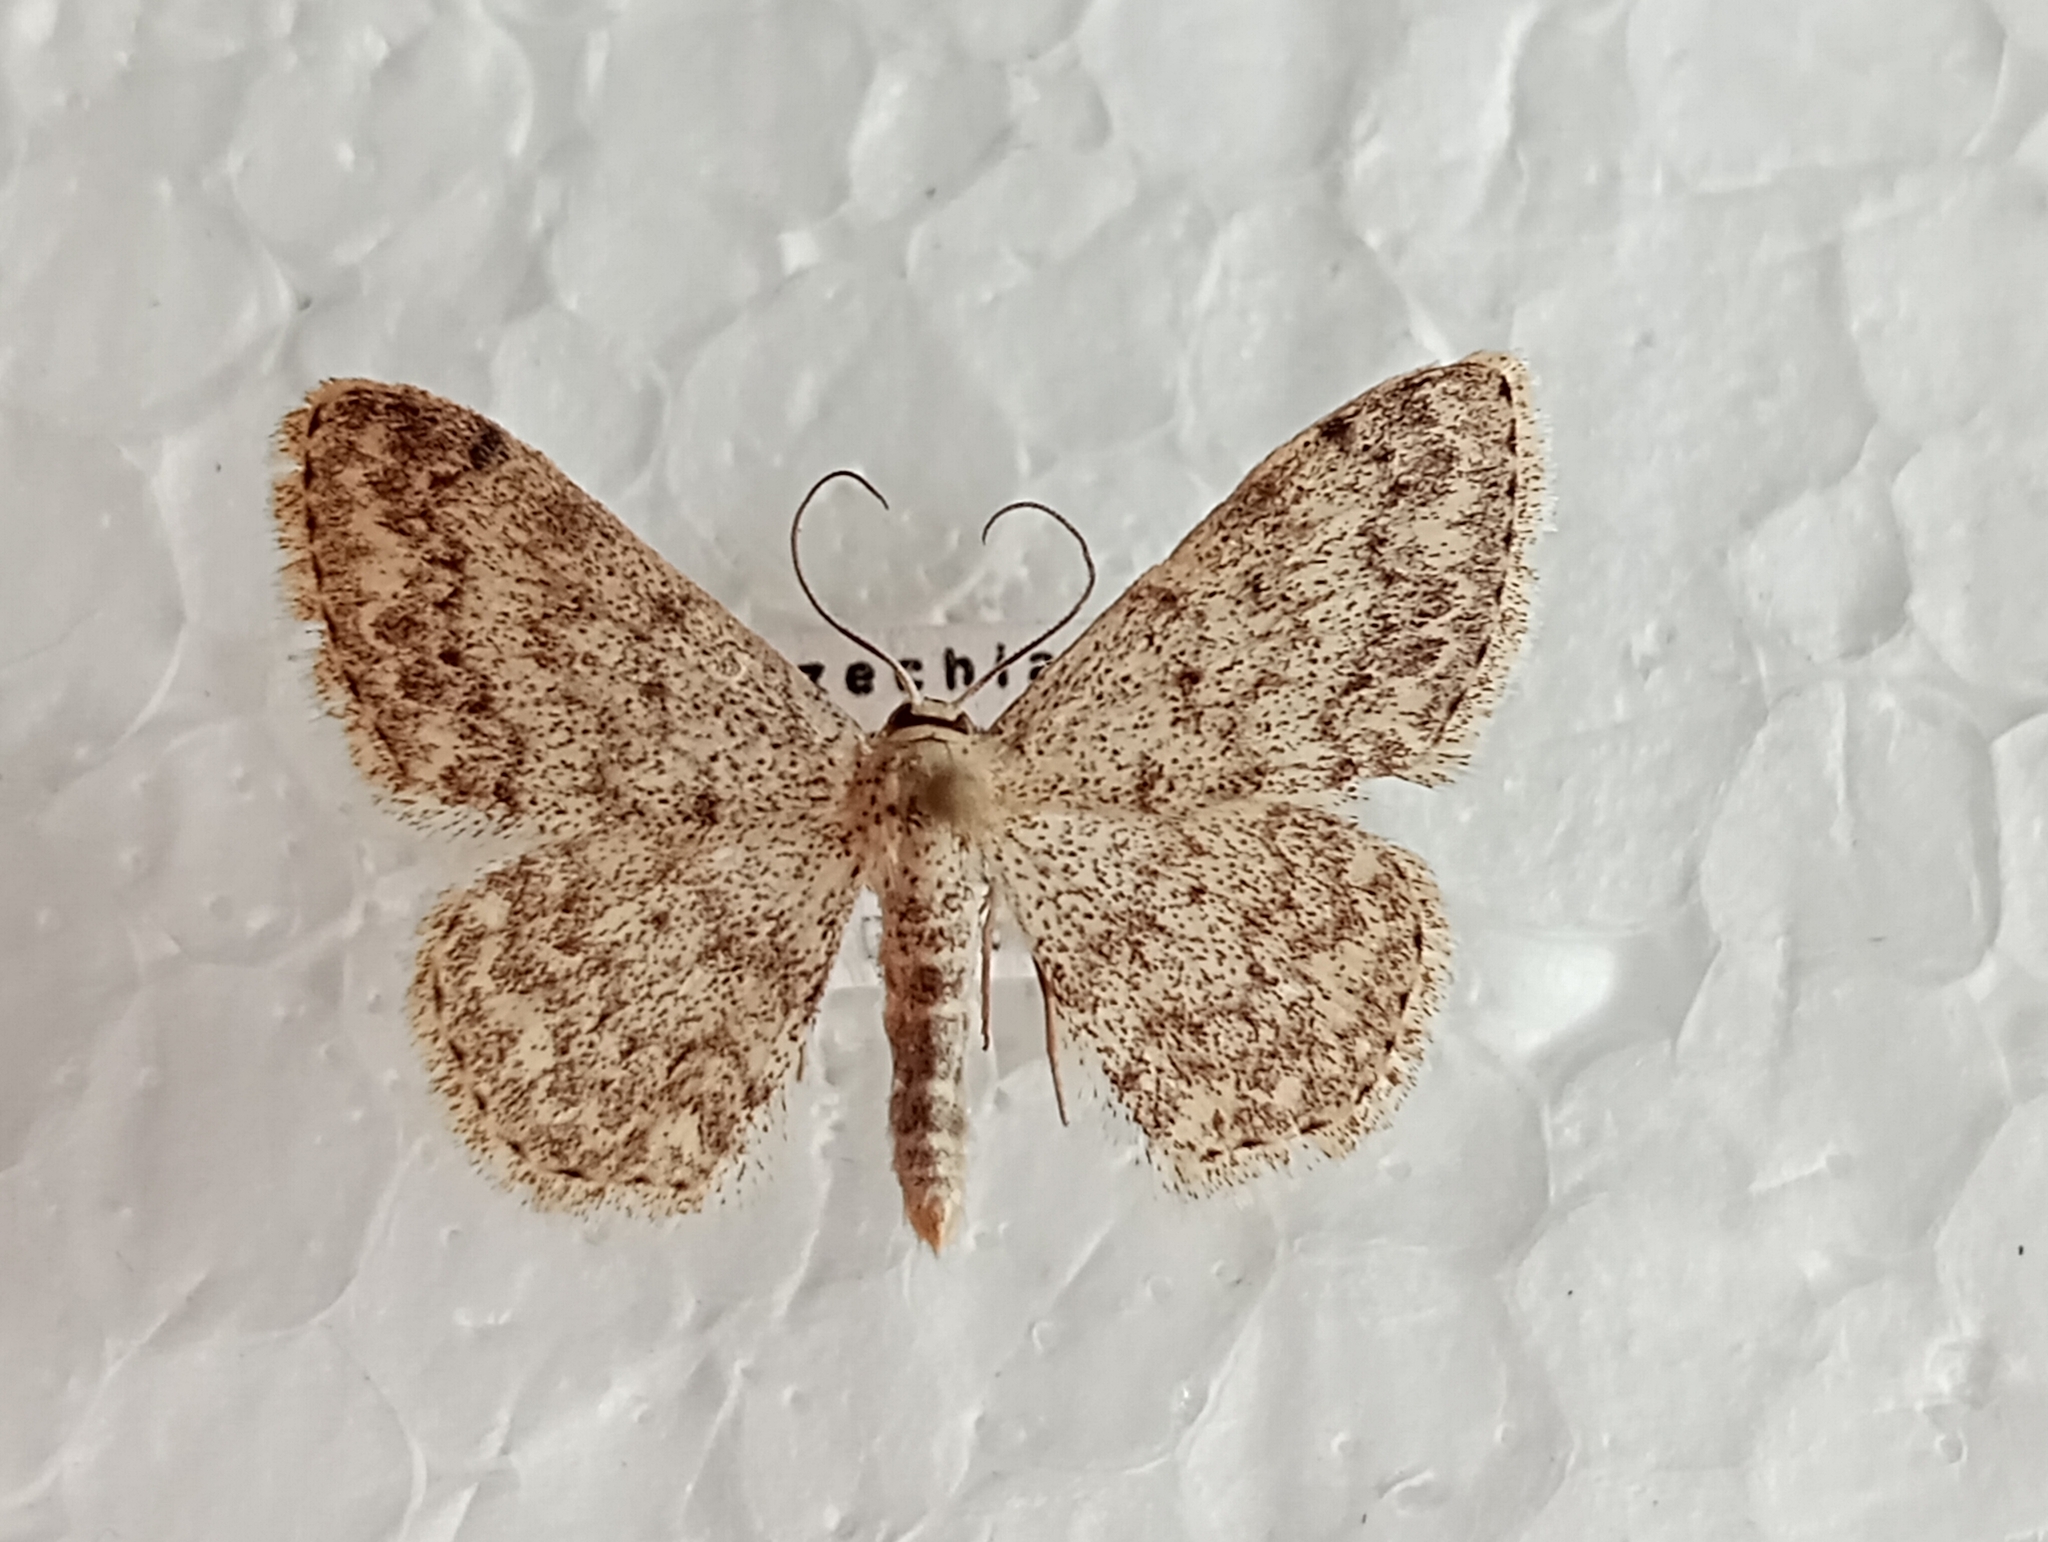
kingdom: Animalia
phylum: Arthropoda
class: Insecta
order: Lepidoptera
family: Geometridae
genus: Scopula
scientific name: Scopula marginepunctata
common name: Mullein wave
